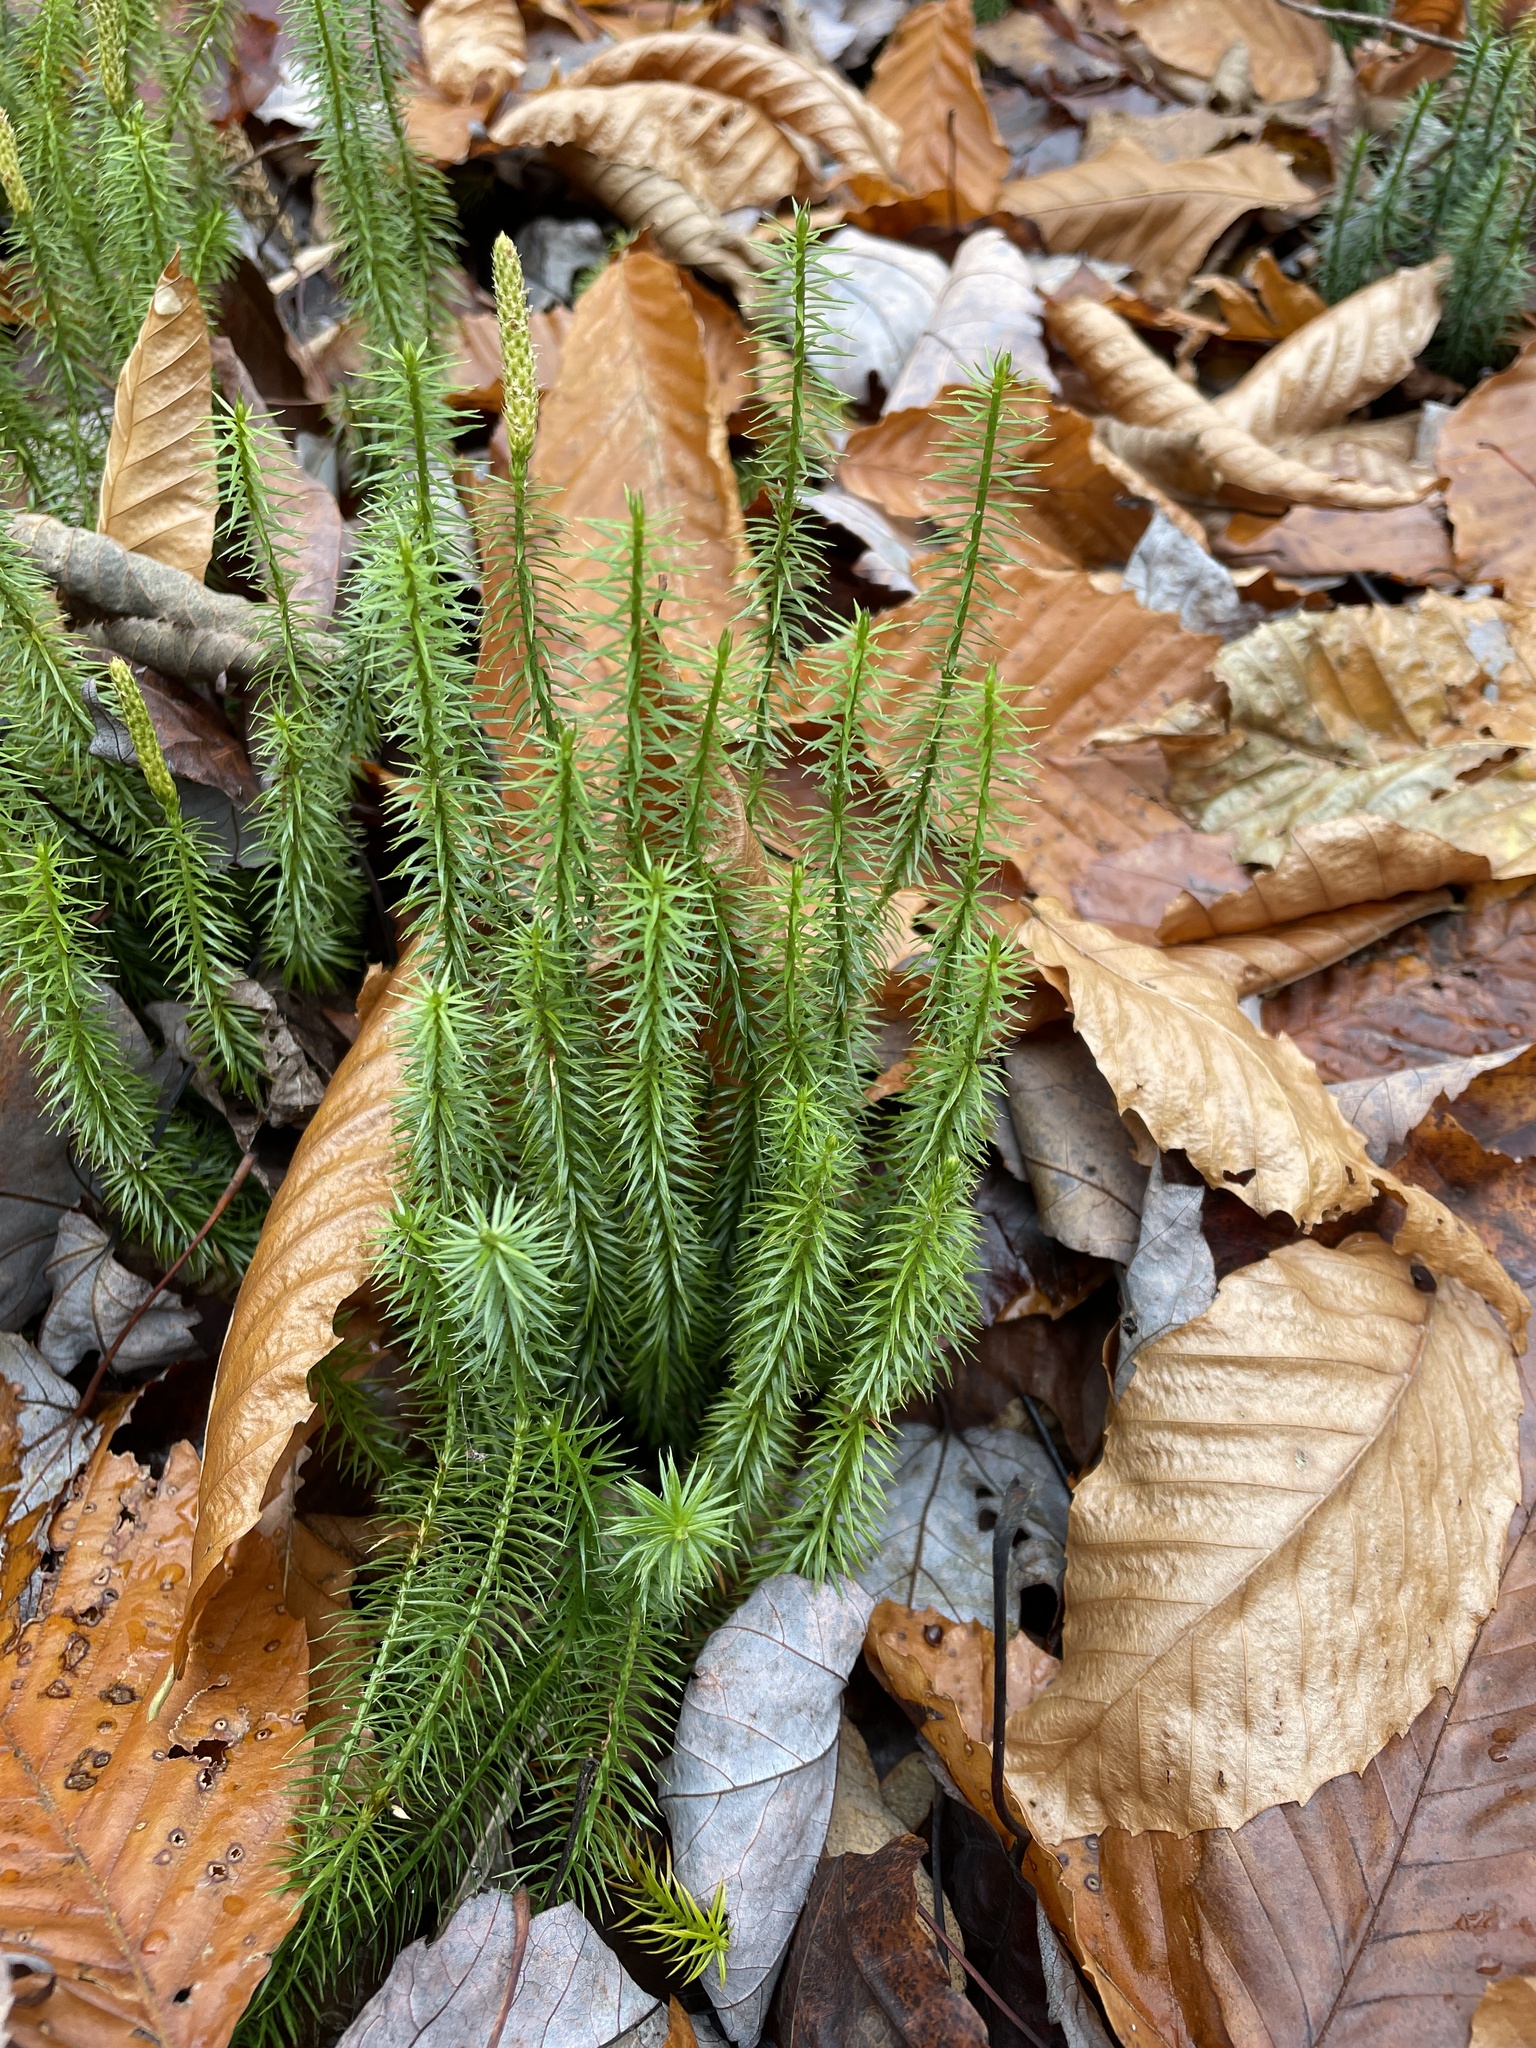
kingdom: Plantae
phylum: Tracheophyta
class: Lycopodiopsida
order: Lycopodiales
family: Lycopodiaceae
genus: Spinulum
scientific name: Spinulum annotinum
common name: Interrupted club-moss
